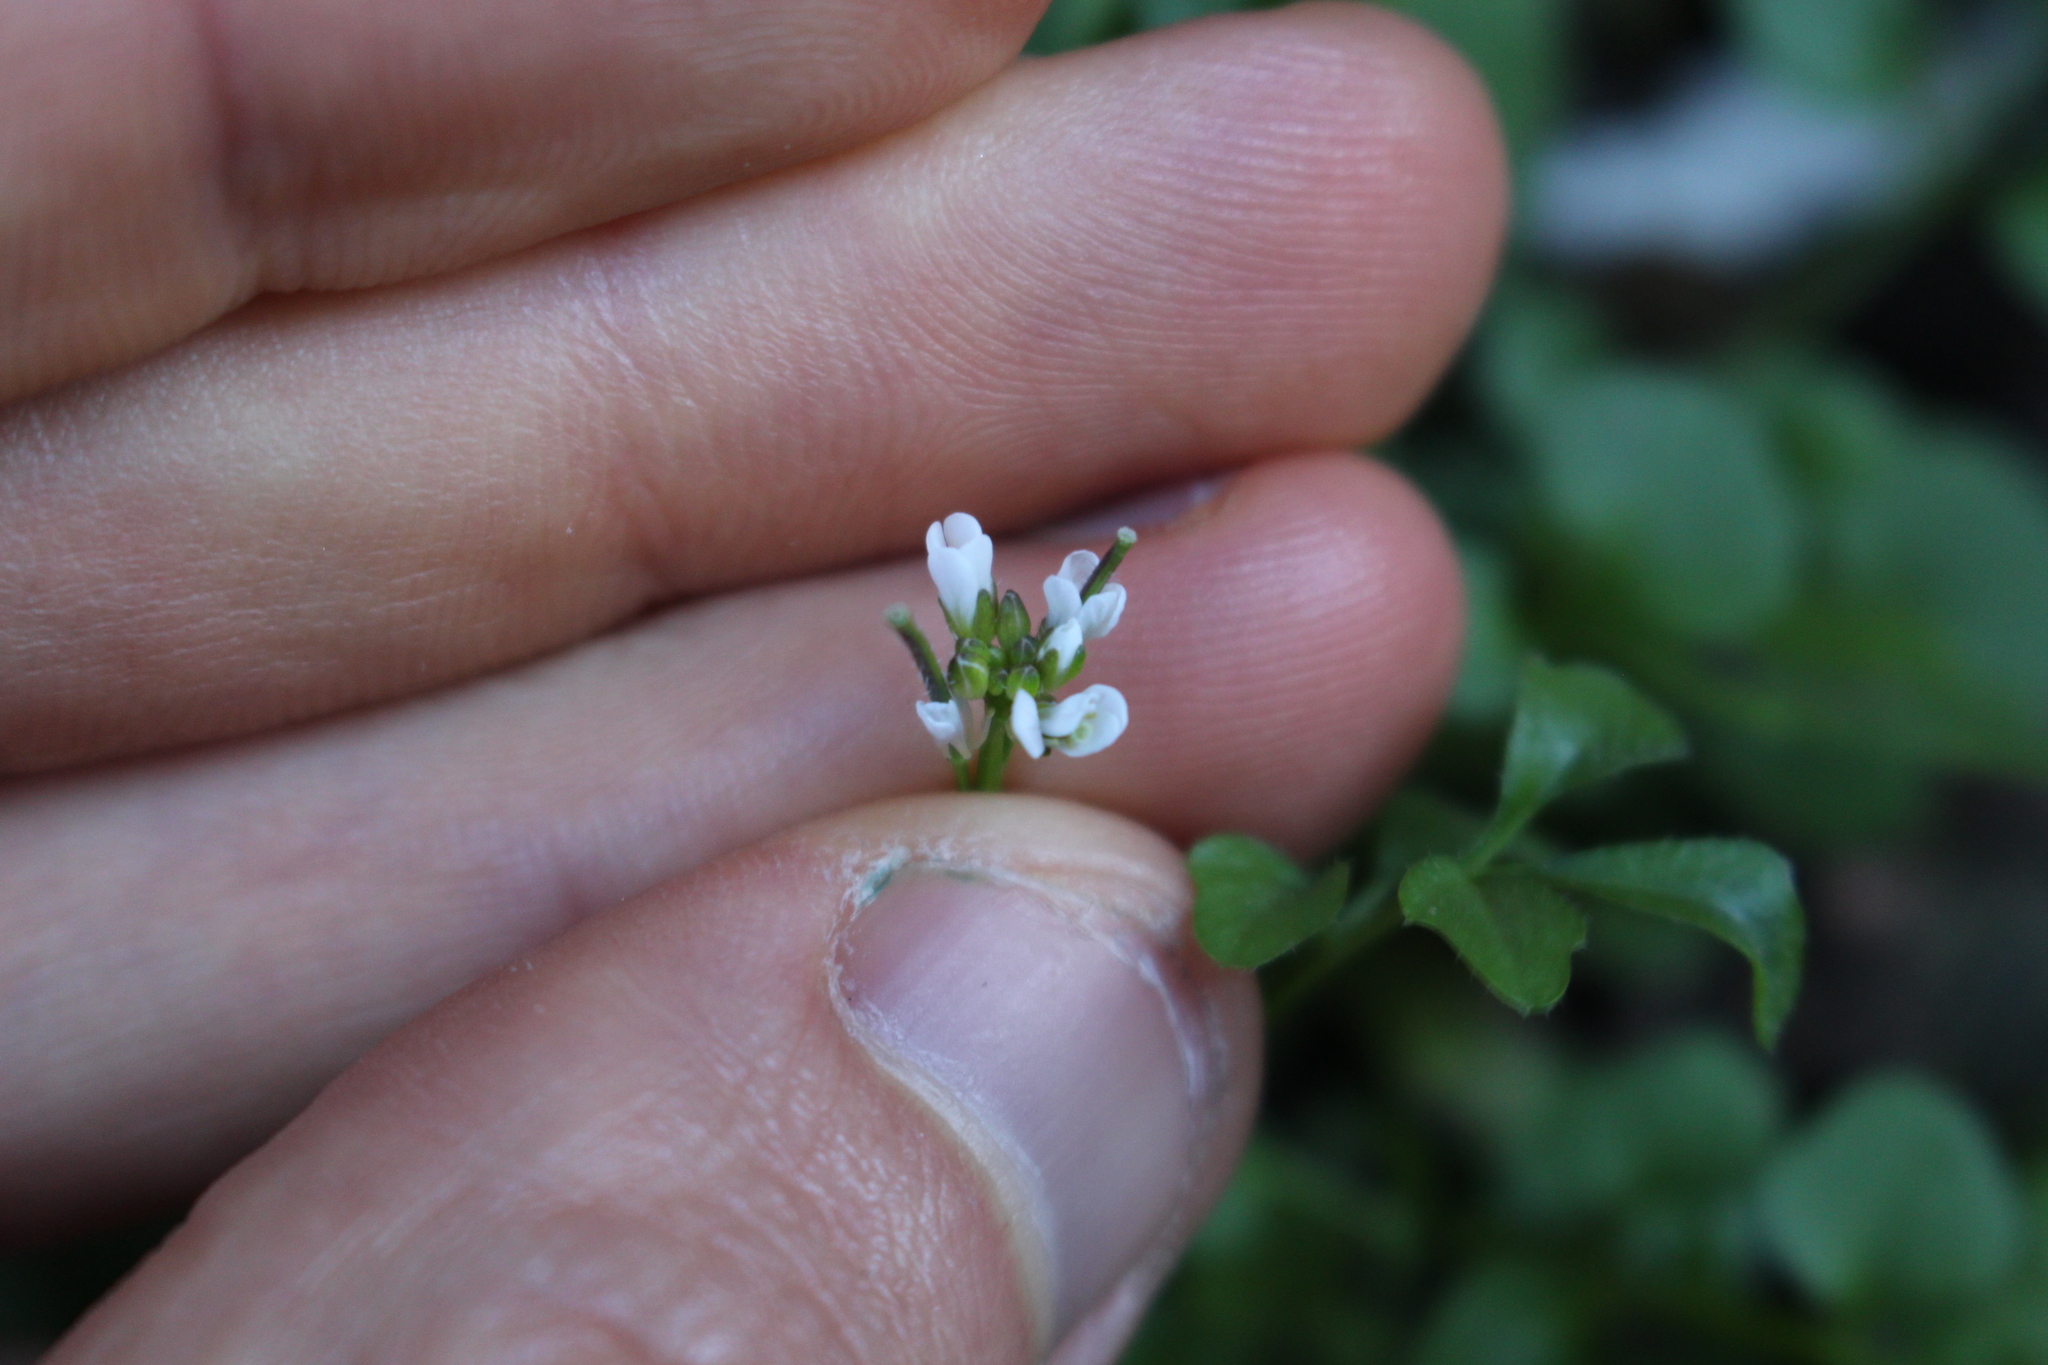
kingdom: Plantae
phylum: Tracheophyta
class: Magnoliopsida
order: Brassicales
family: Brassicaceae
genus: Cardamine
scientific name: Cardamine hirsuta
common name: Hairy bittercress
